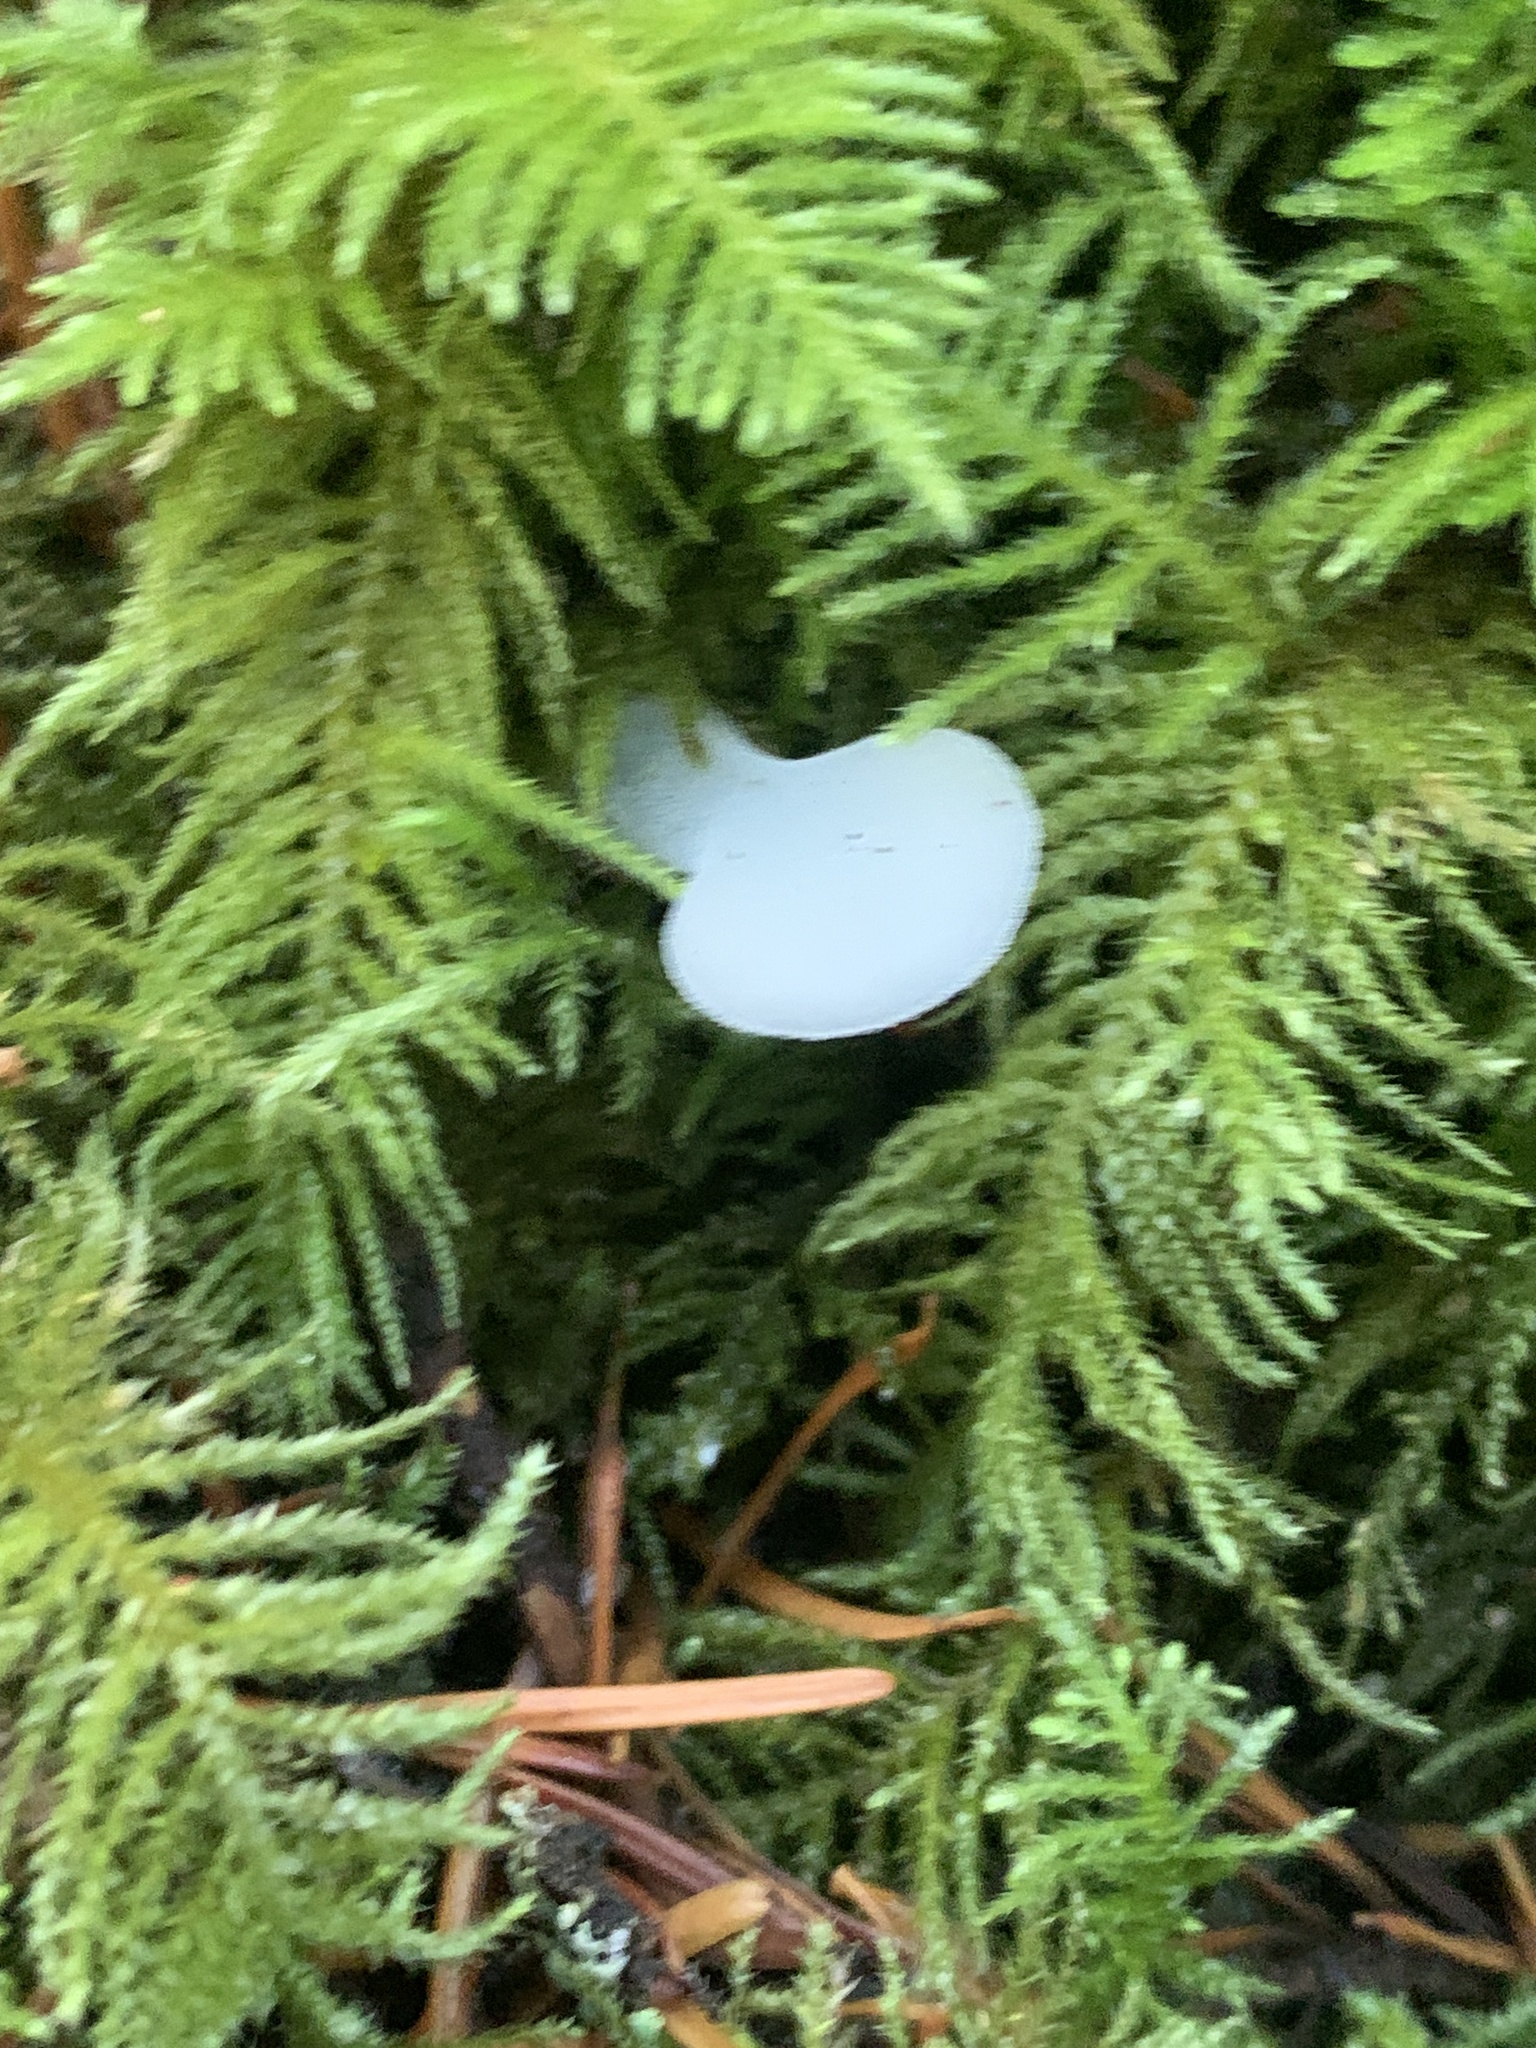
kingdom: Fungi
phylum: Basidiomycota
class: Agaricomycetes
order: Auriculariales
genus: Pseudohydnum
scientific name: Pseudohydnum gelatinosum
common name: Jelly tongue
